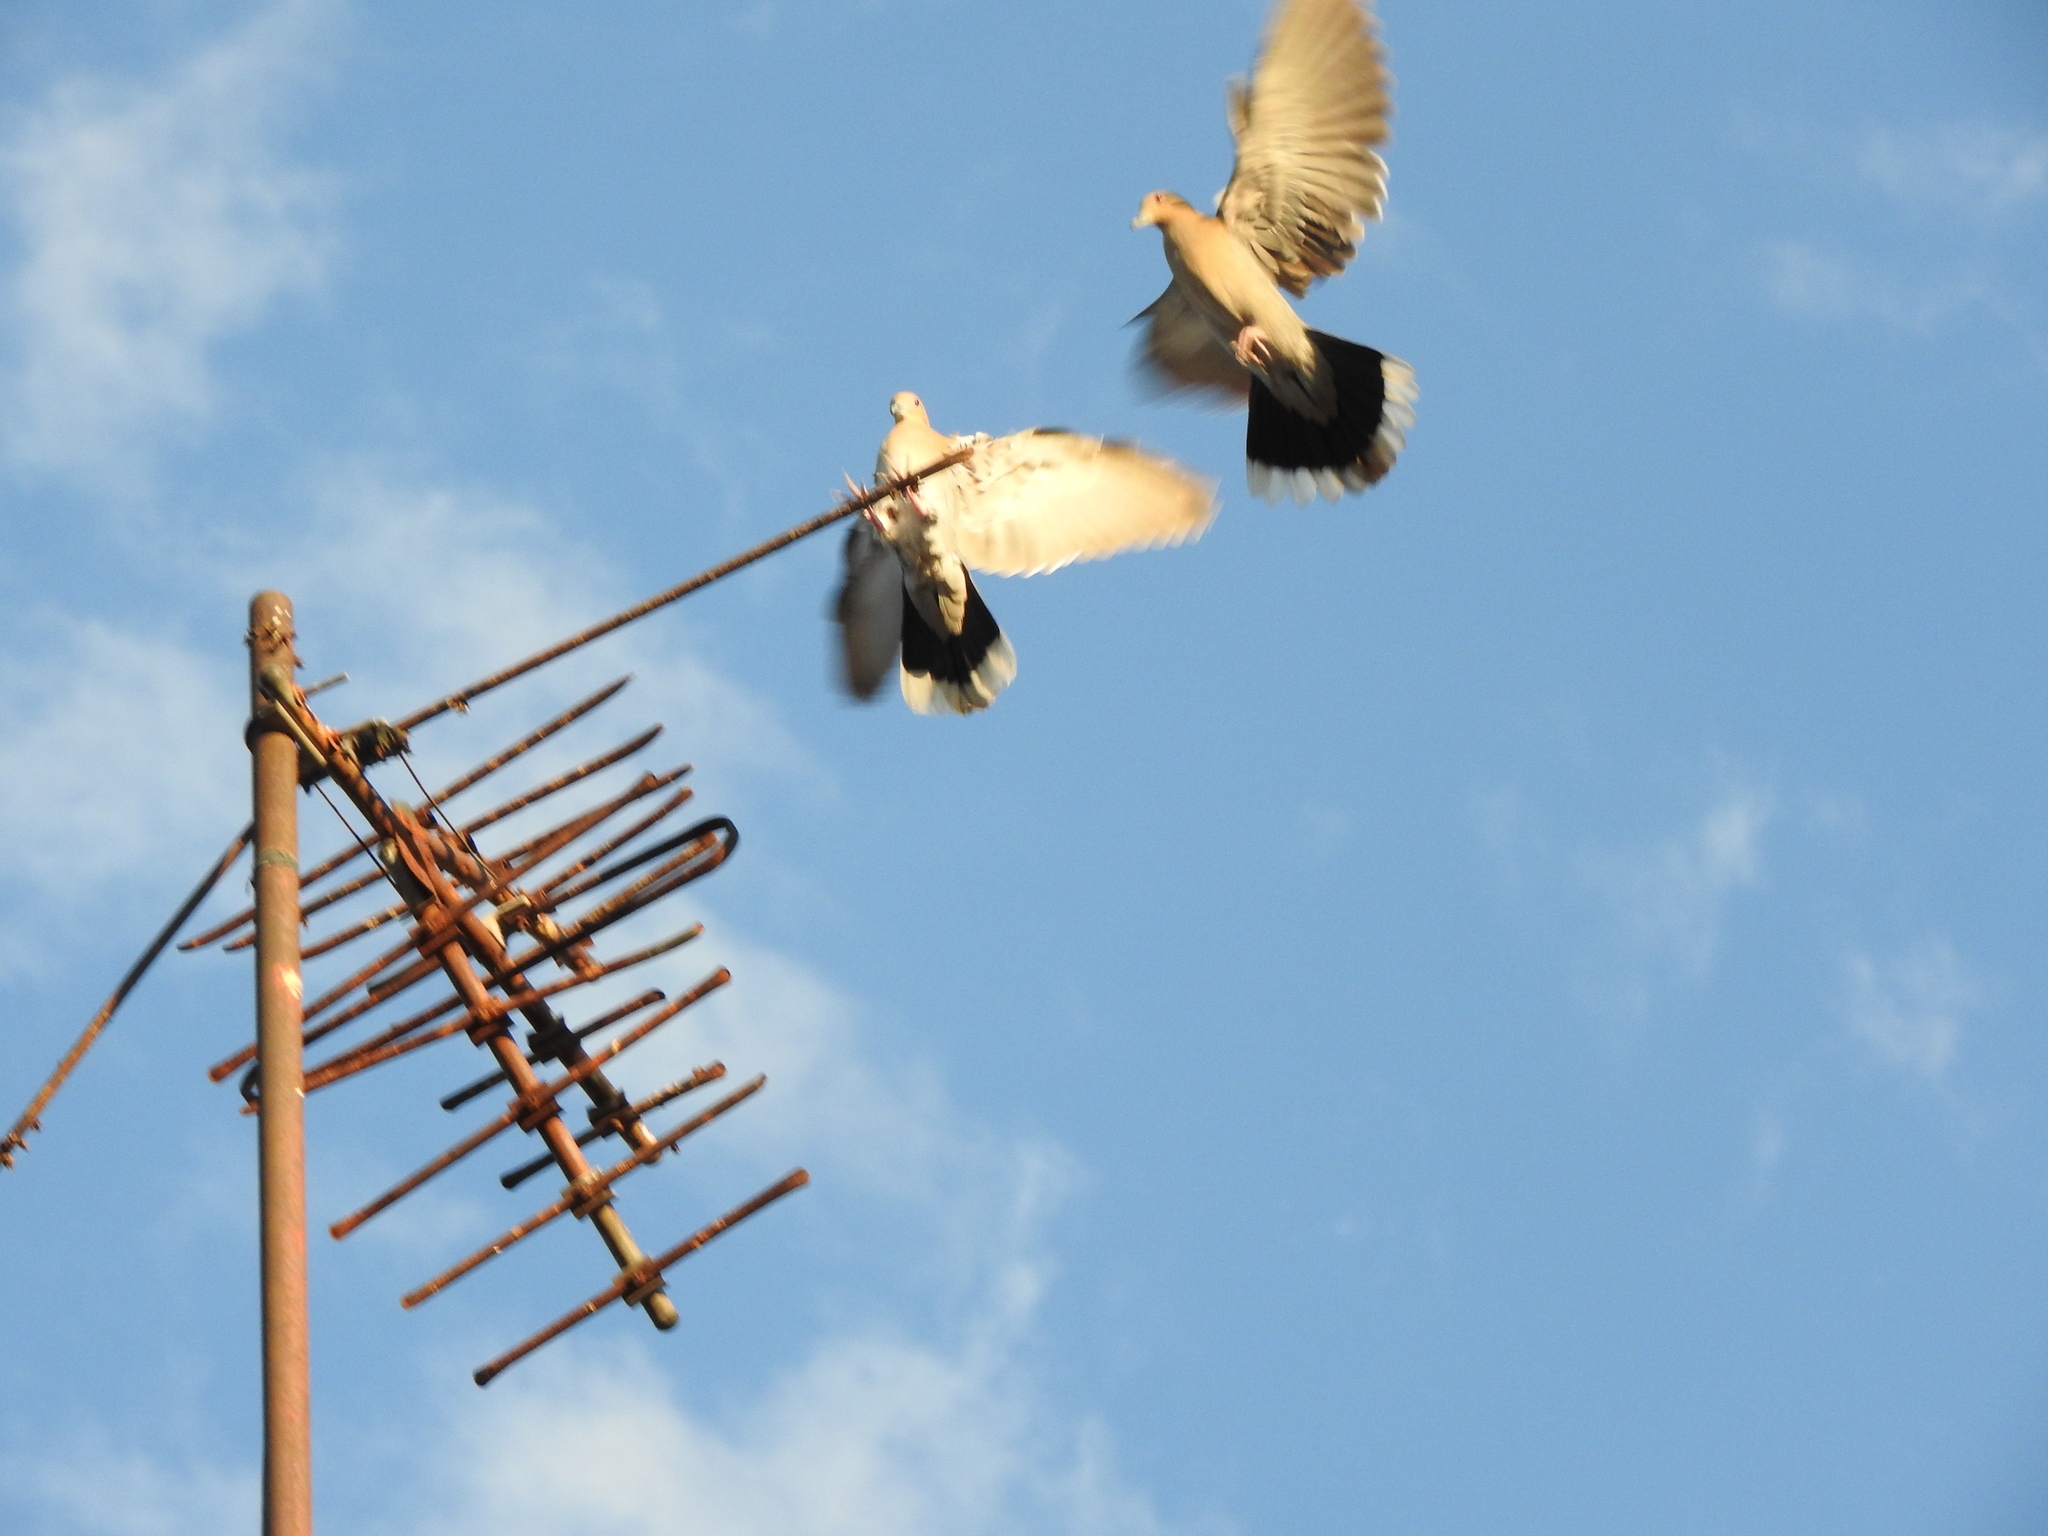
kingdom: Animalia
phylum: Chordata
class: Aves
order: Columbiformes
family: Columbidae
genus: Zenaida
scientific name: Zenaida asiatica
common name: White-winged dove
